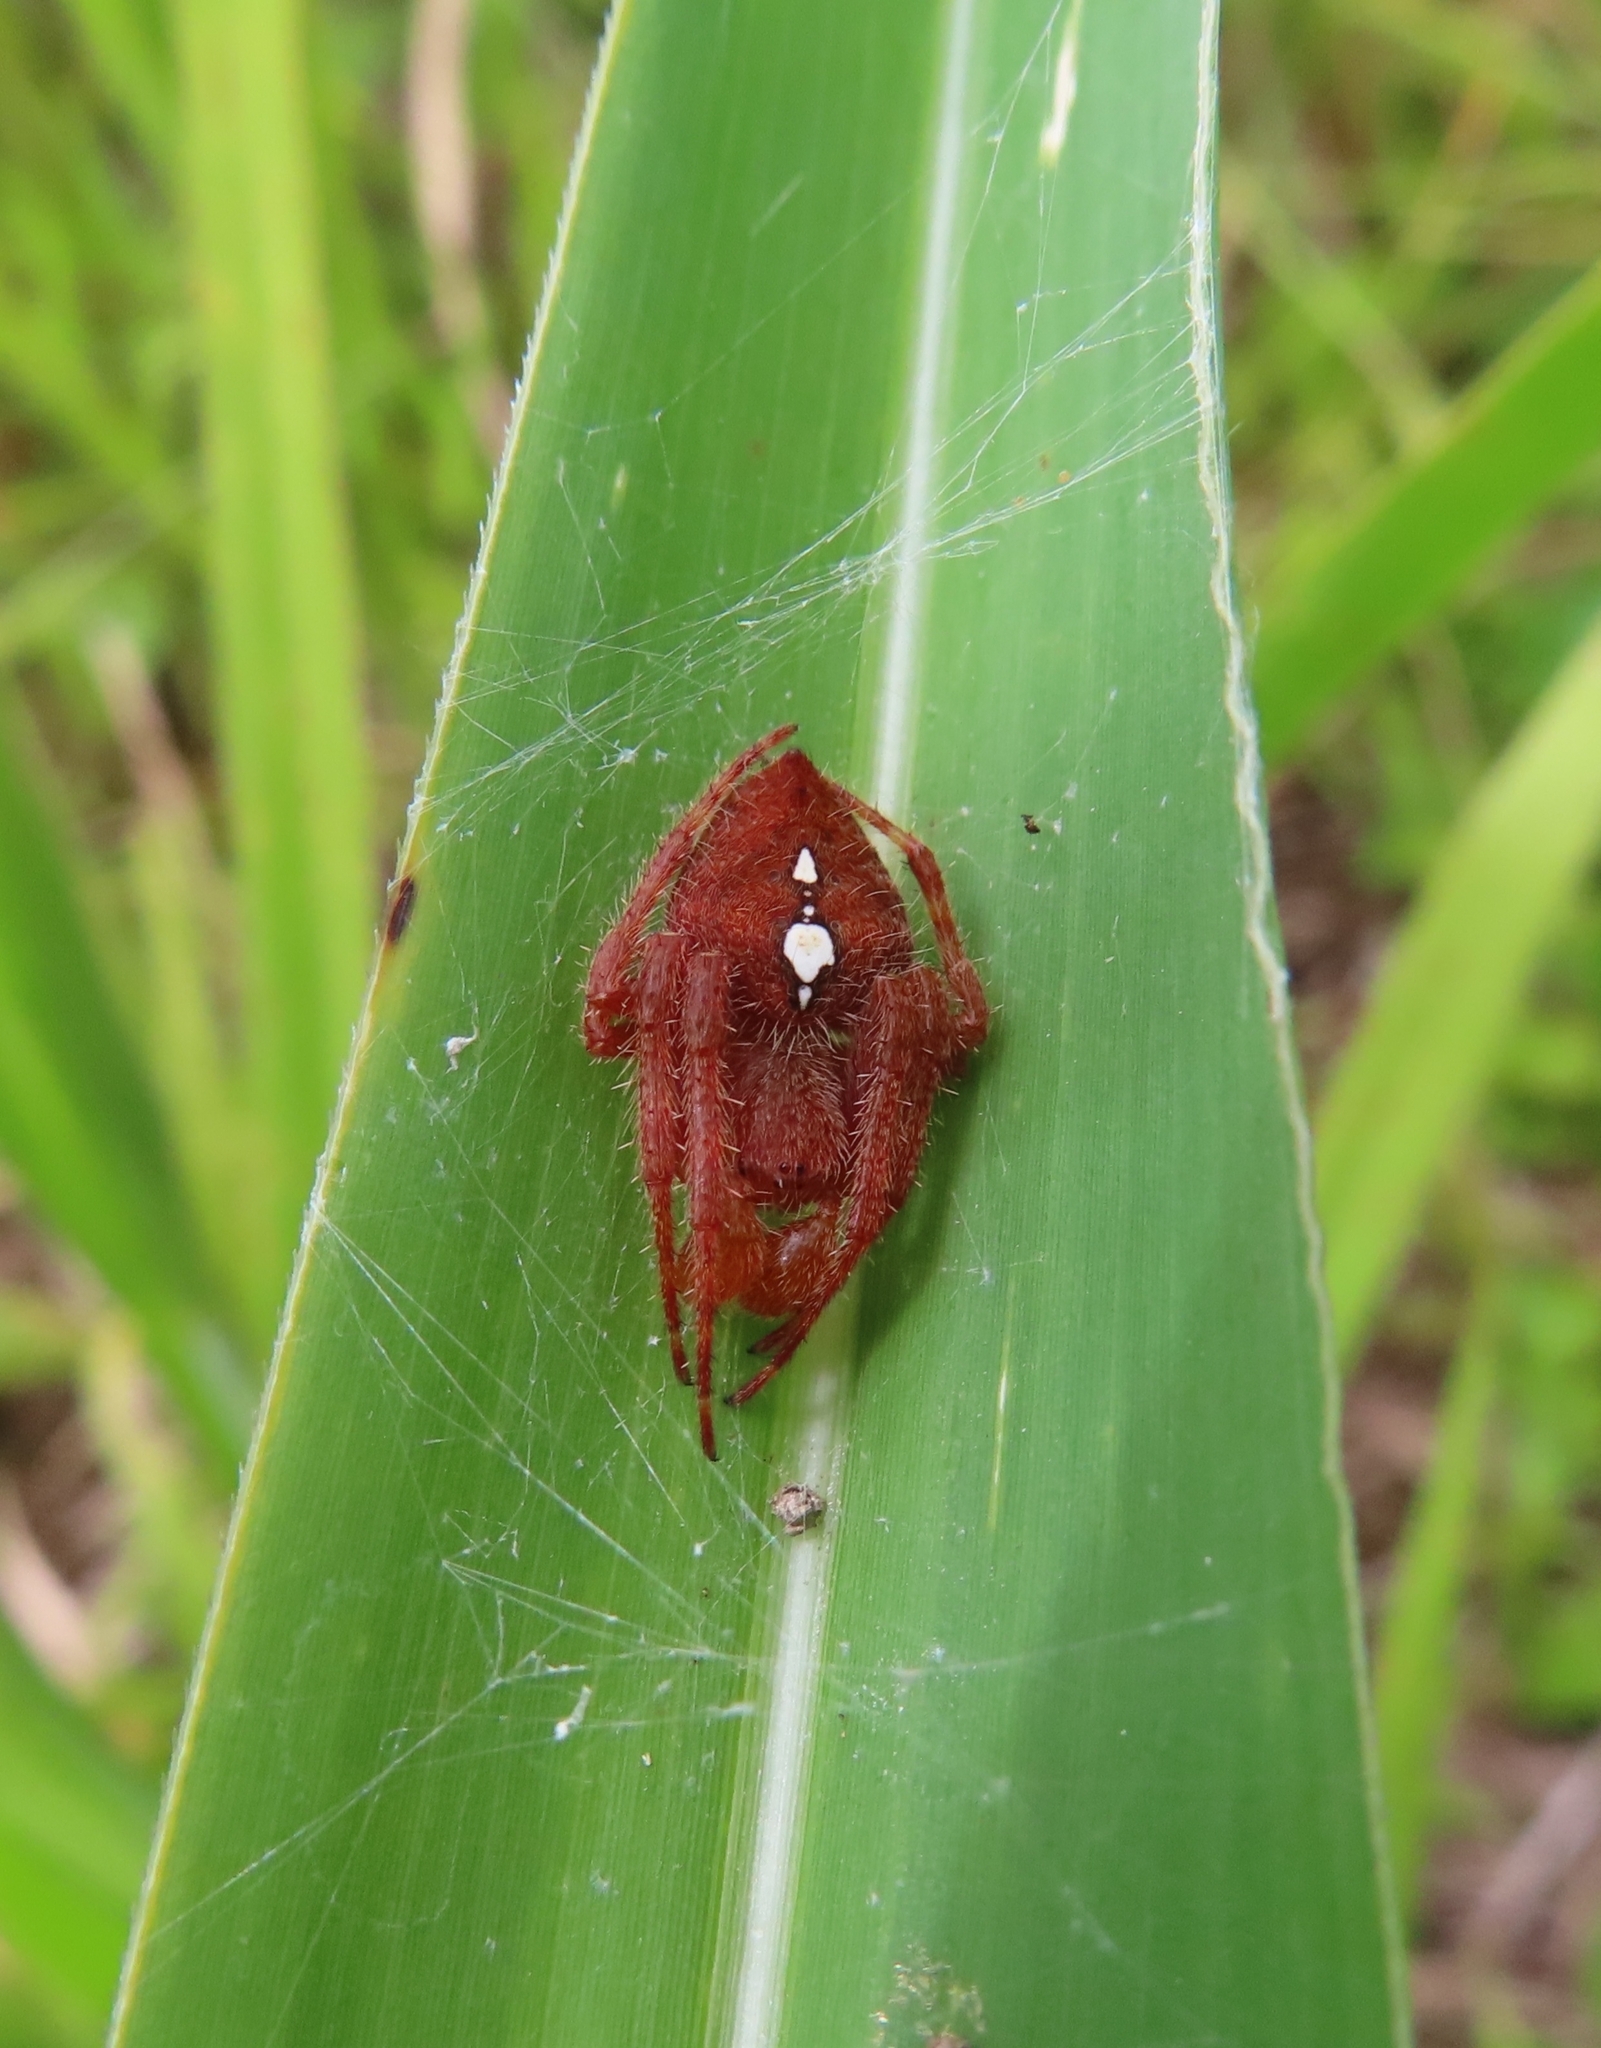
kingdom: Animalia
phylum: Arthropoda
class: Arachnida
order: Araneae
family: Araneidae
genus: Eriophora
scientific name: Eriophora edax
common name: Orb weavers
